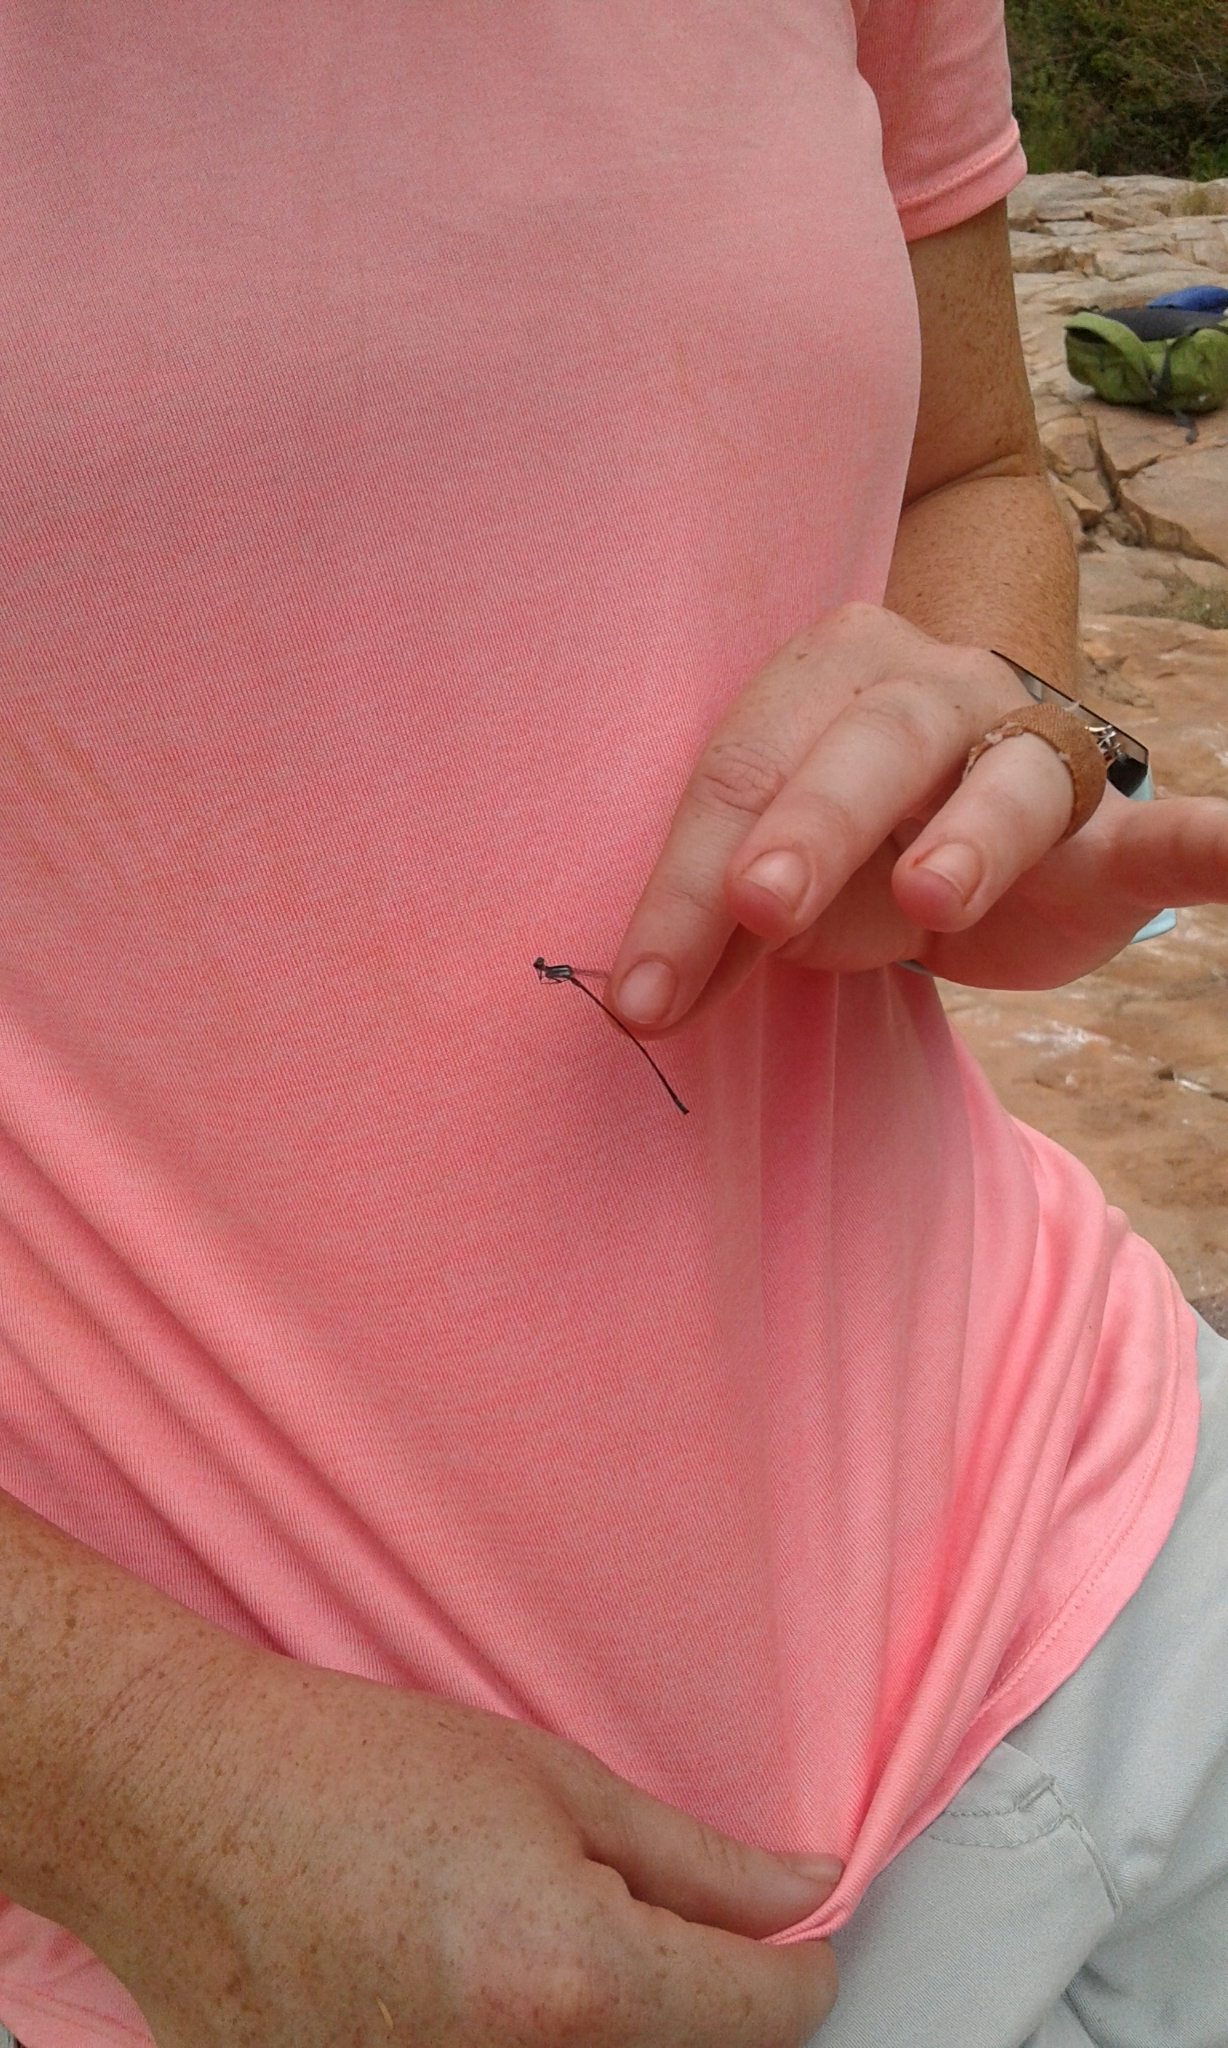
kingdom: Animalia
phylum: Arthropoda
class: Insecta
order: Odonata
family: Platycnemididae
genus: Elattoneura
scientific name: Elattoneura glauca
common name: Common threadtail
